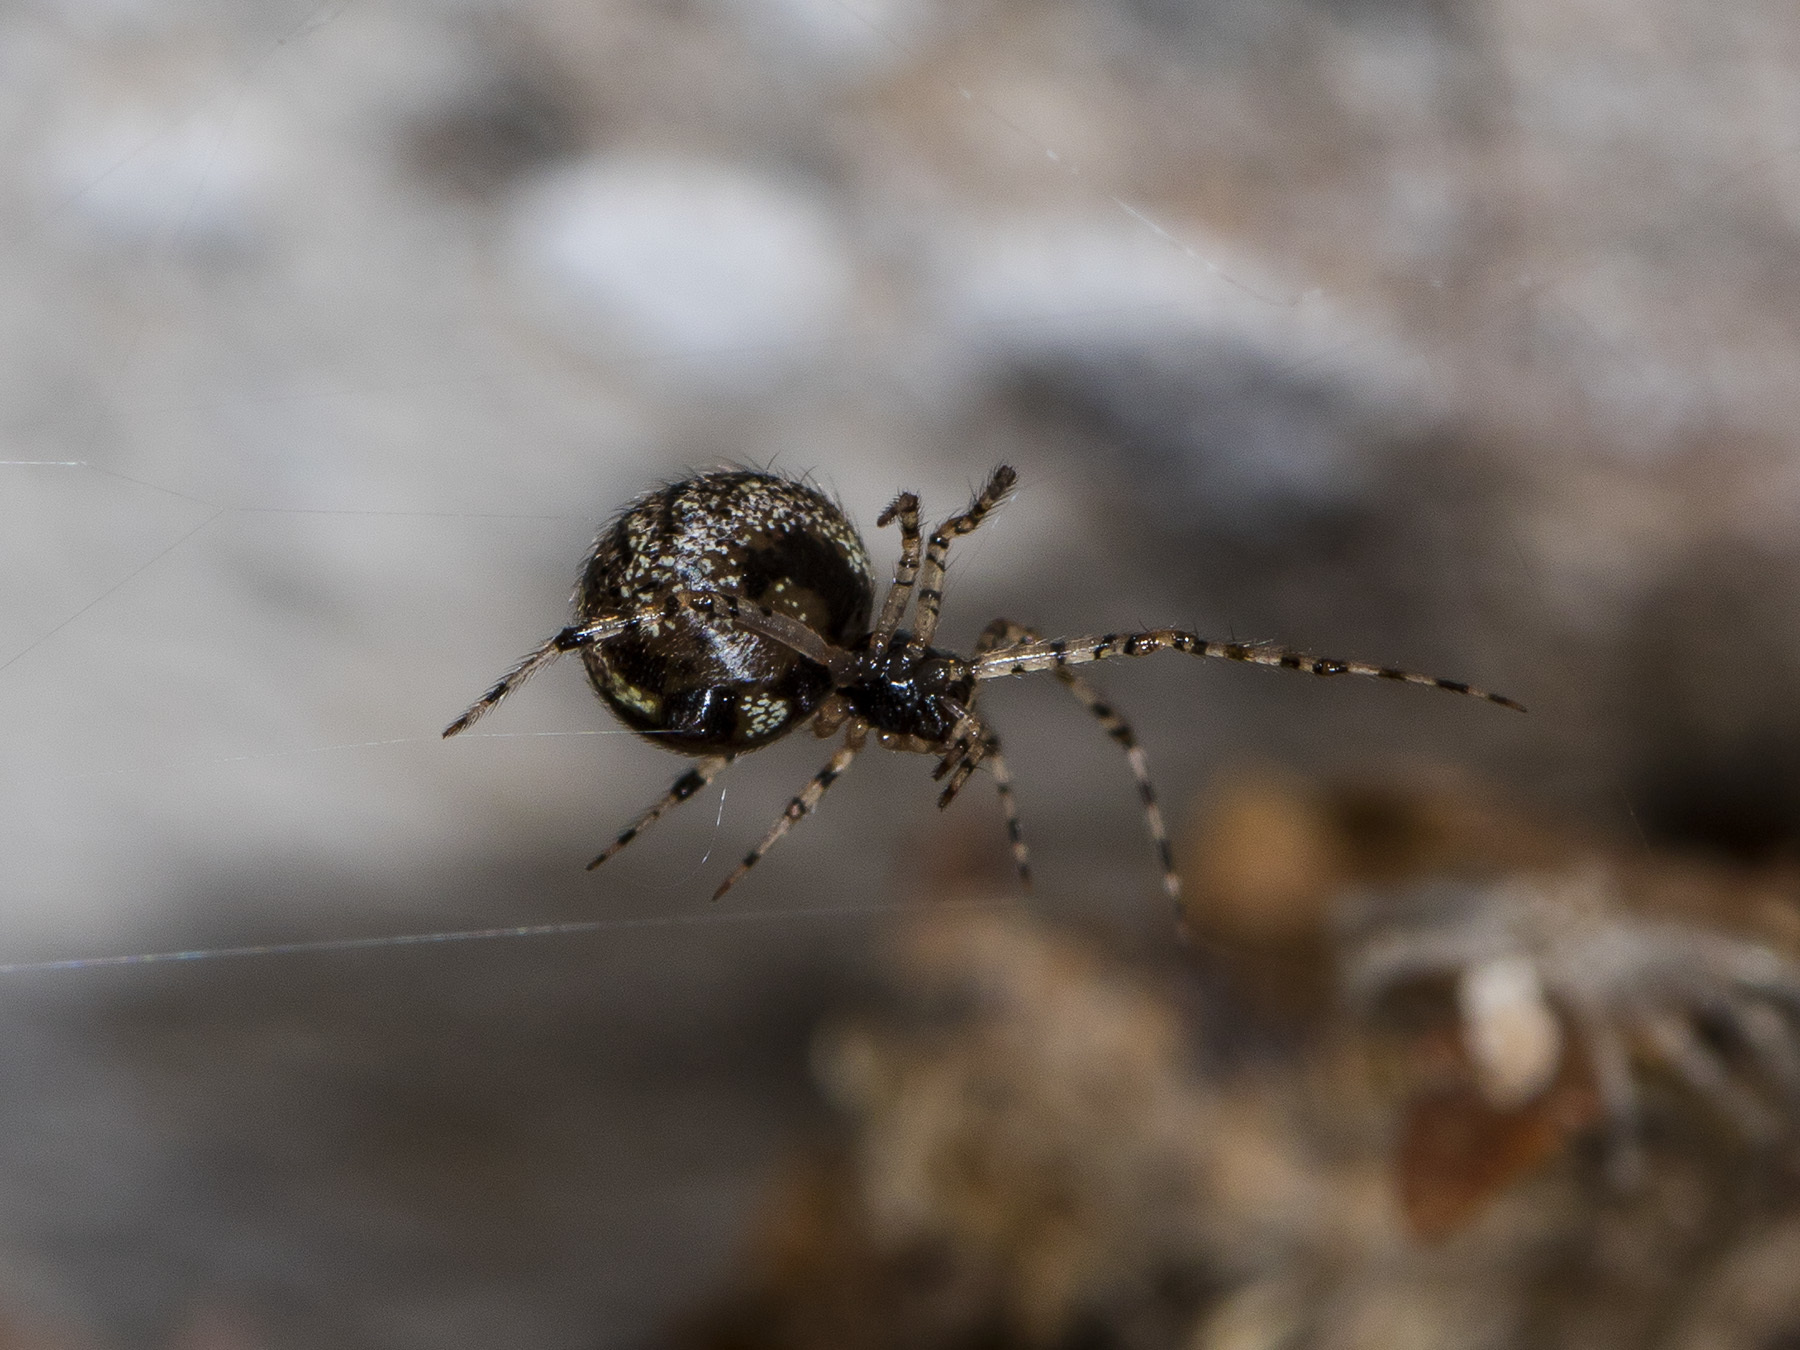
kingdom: Animalia
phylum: Arthropoda
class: Arachnida
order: Araneae
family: Theridiidae
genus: Theridion
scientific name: Theridion melanurum
